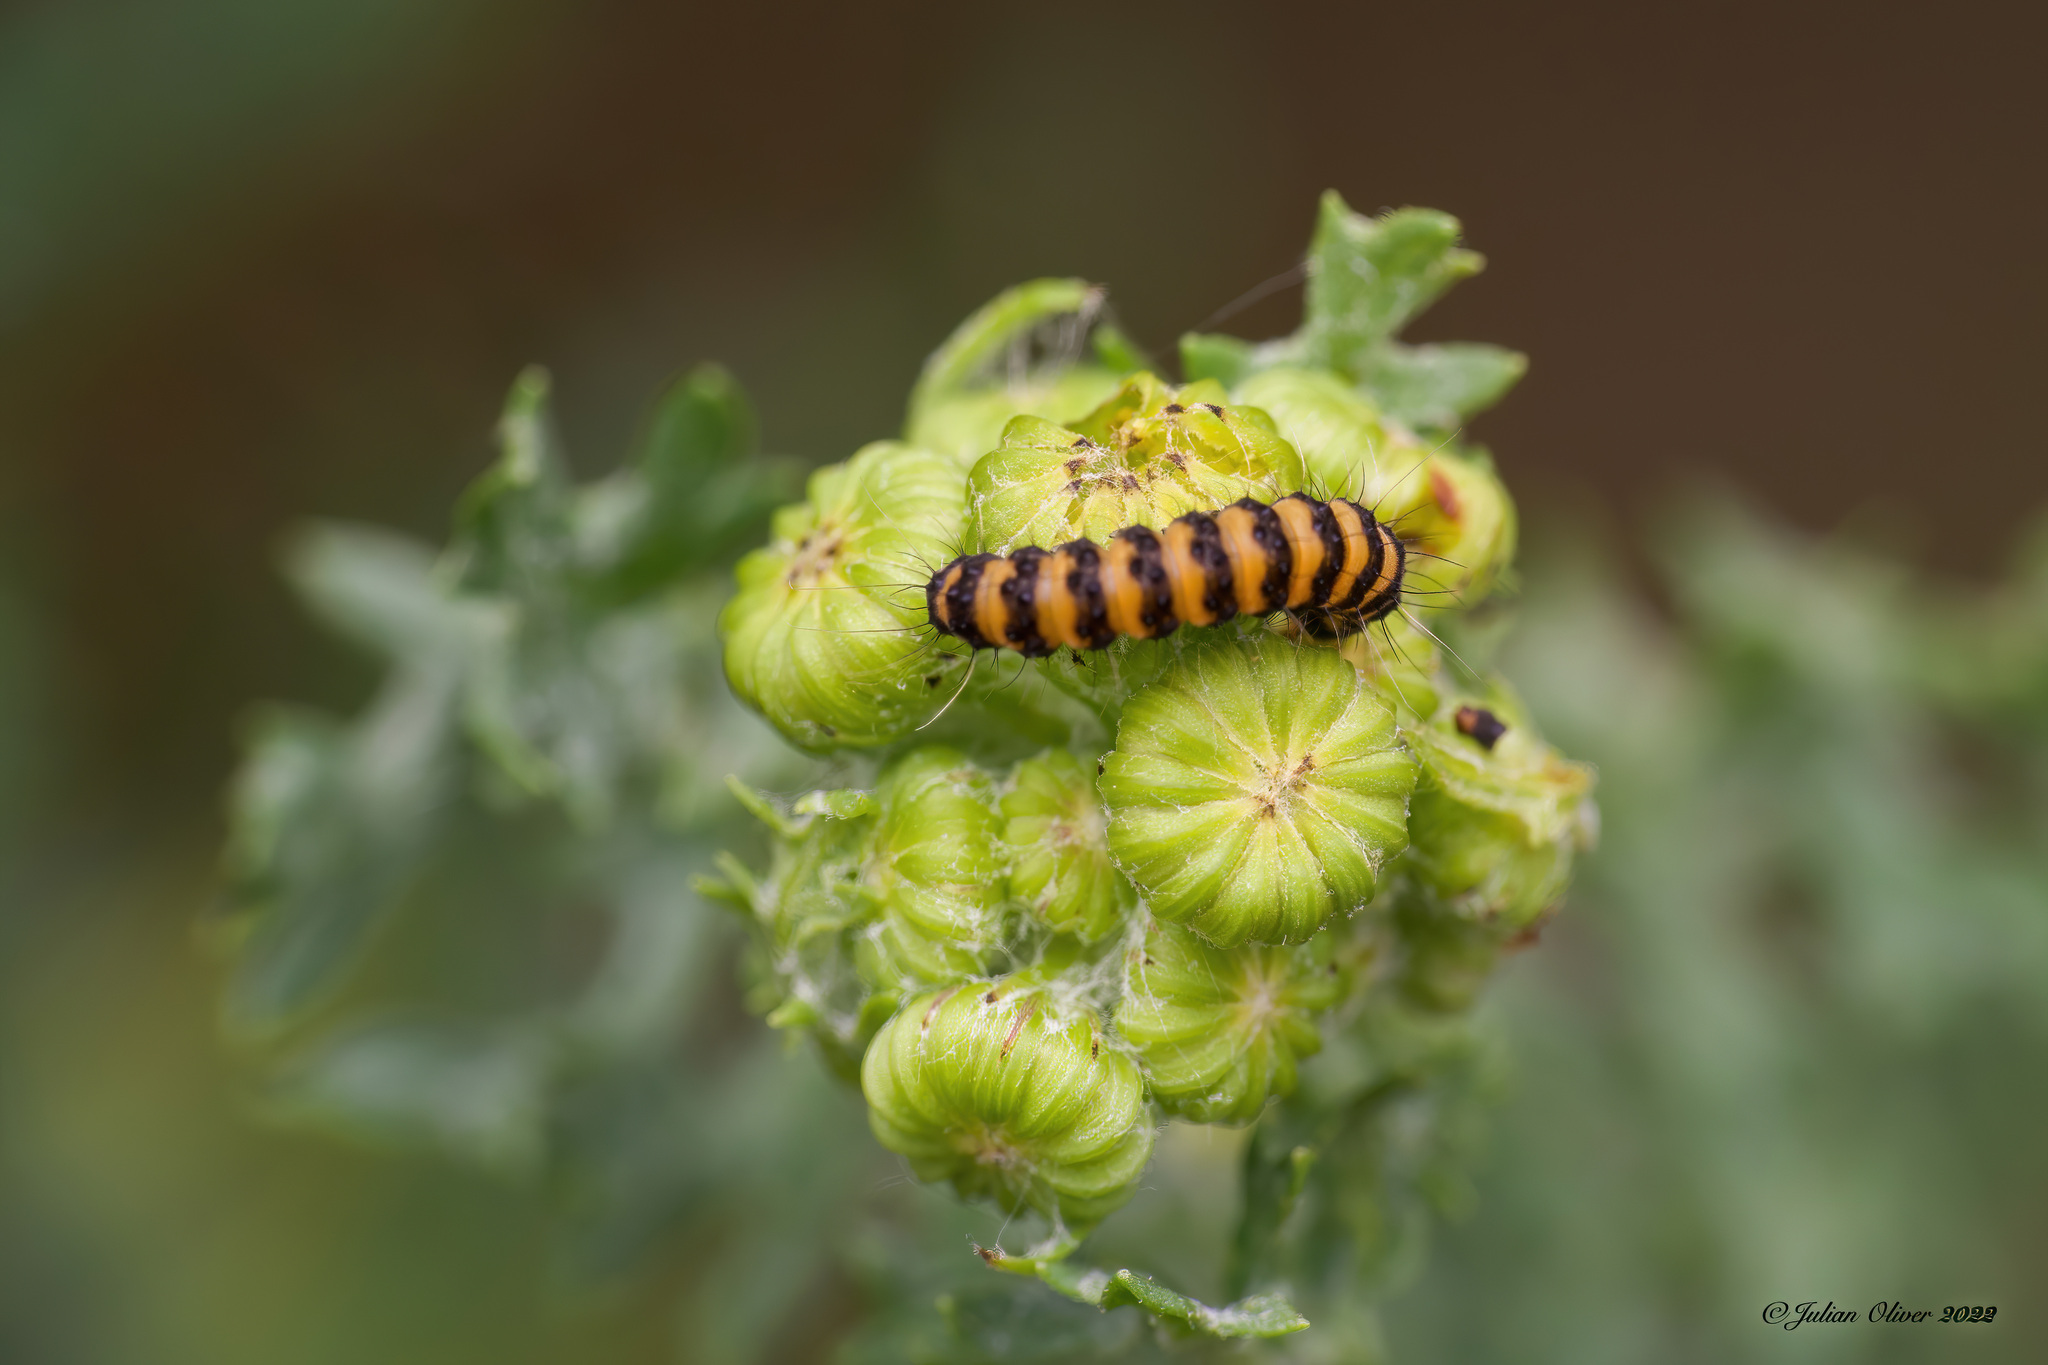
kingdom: Animalia
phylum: Arthropoda
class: Insecta
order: Lepidoptera
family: Erebidae
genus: Tyria
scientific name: Tyria jacobaeae
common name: Cinnabar
